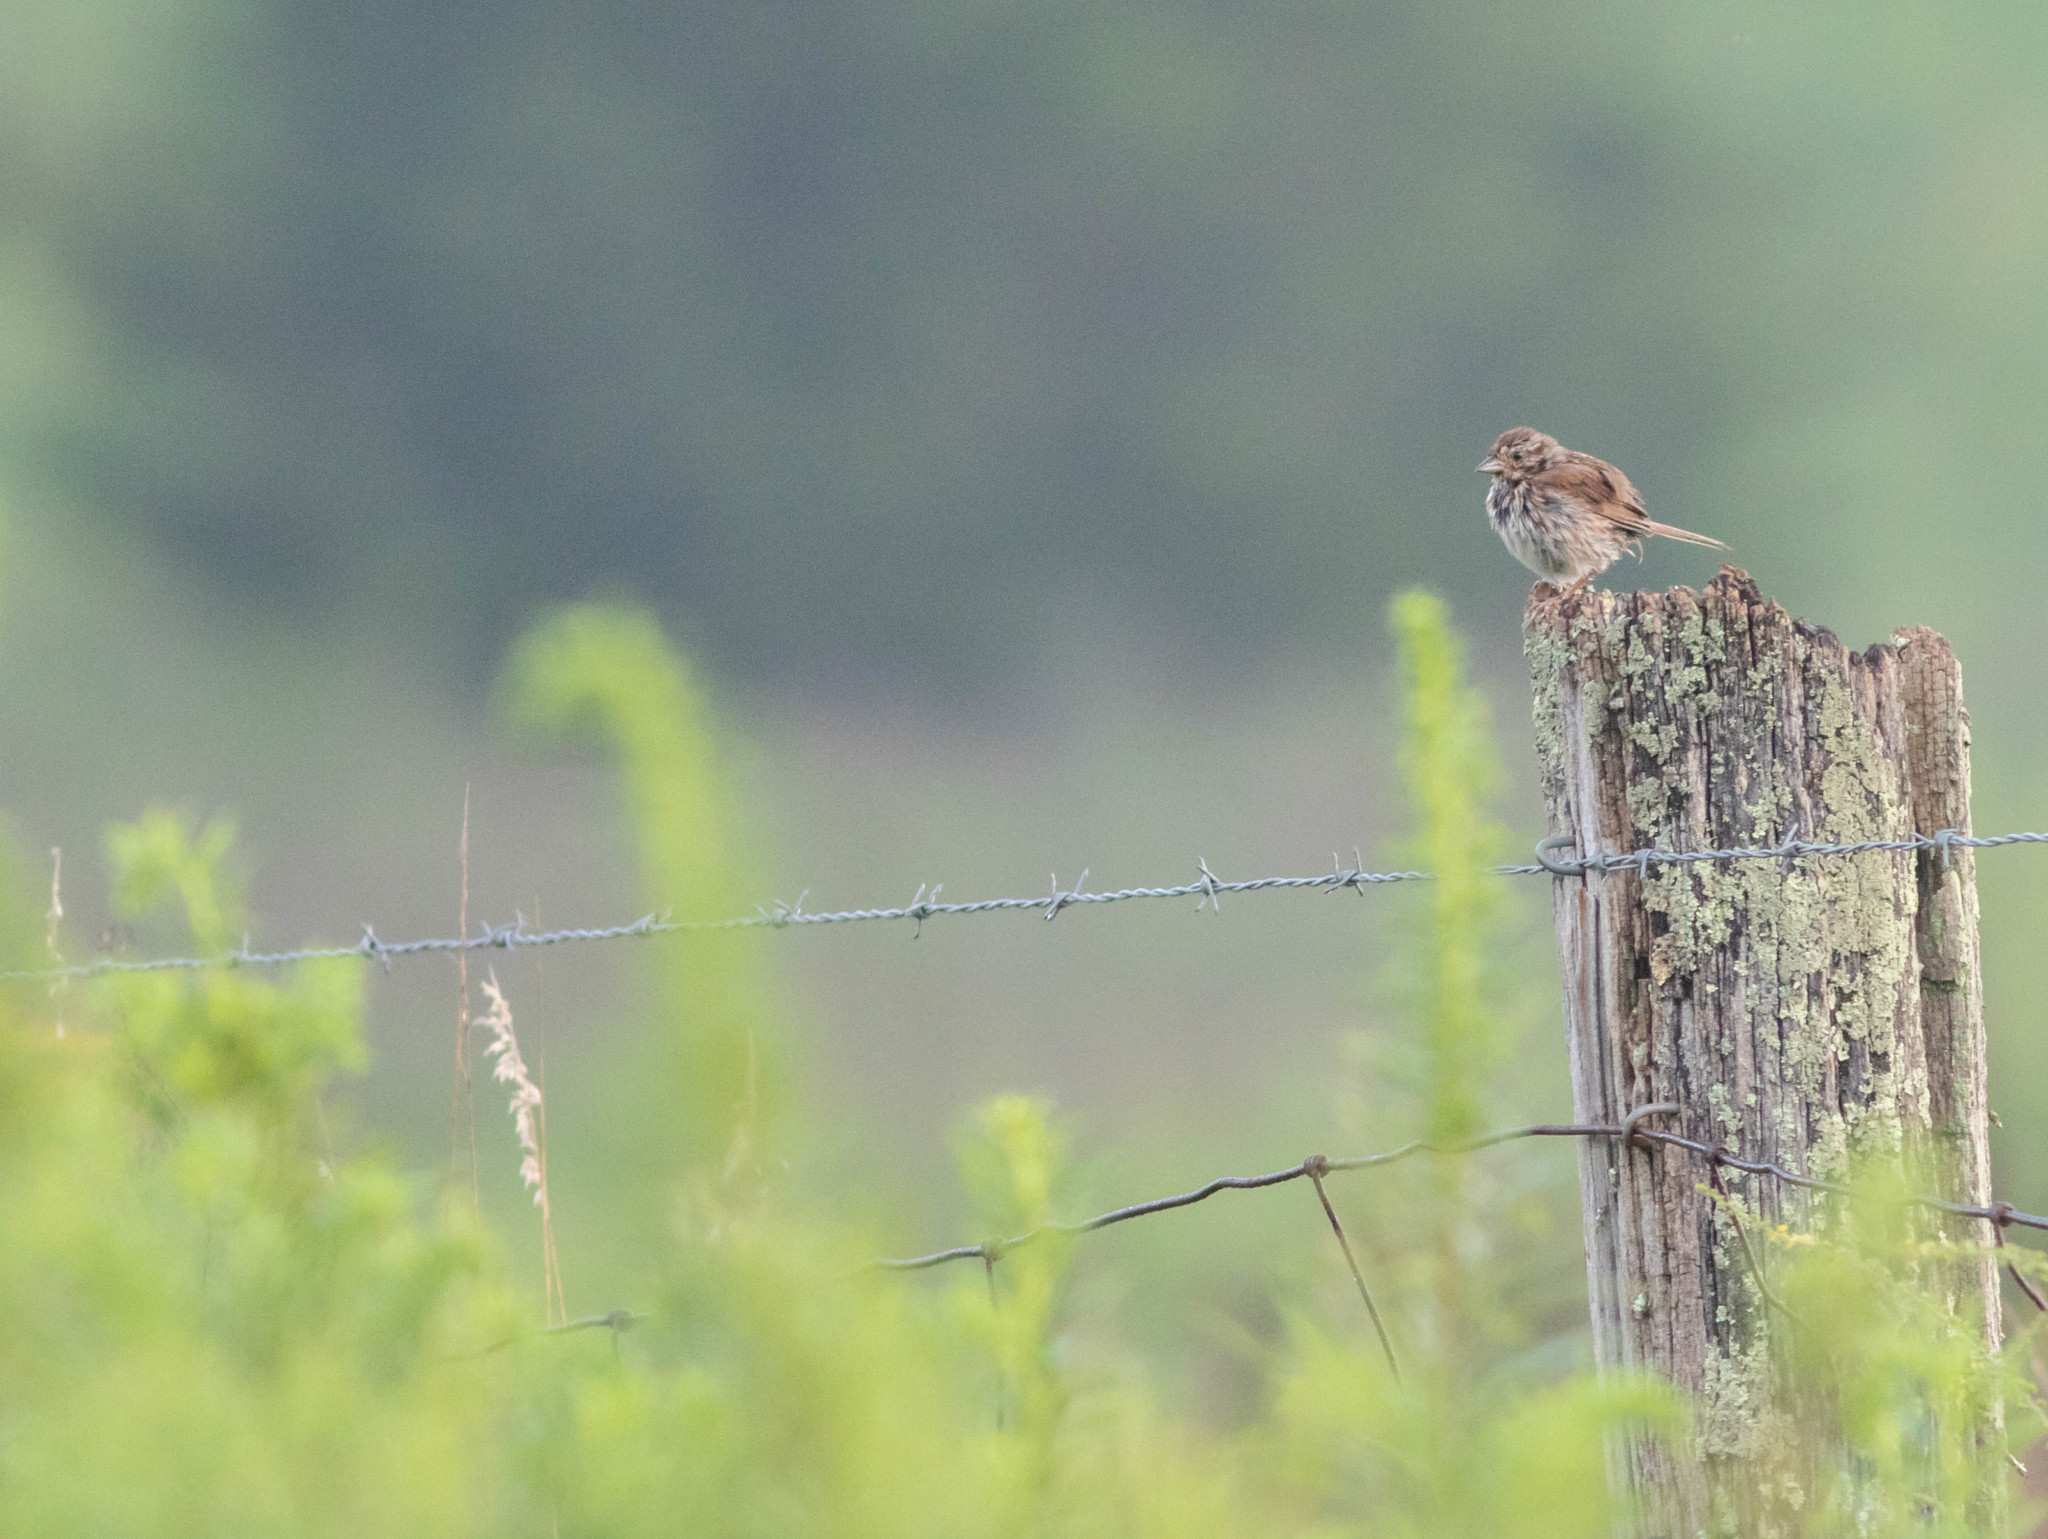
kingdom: Animalia
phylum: Chordata
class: Aves
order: Passeriformes
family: Passerellidae
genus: Melospiza
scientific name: Melospiza melodia
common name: Song sparrow
